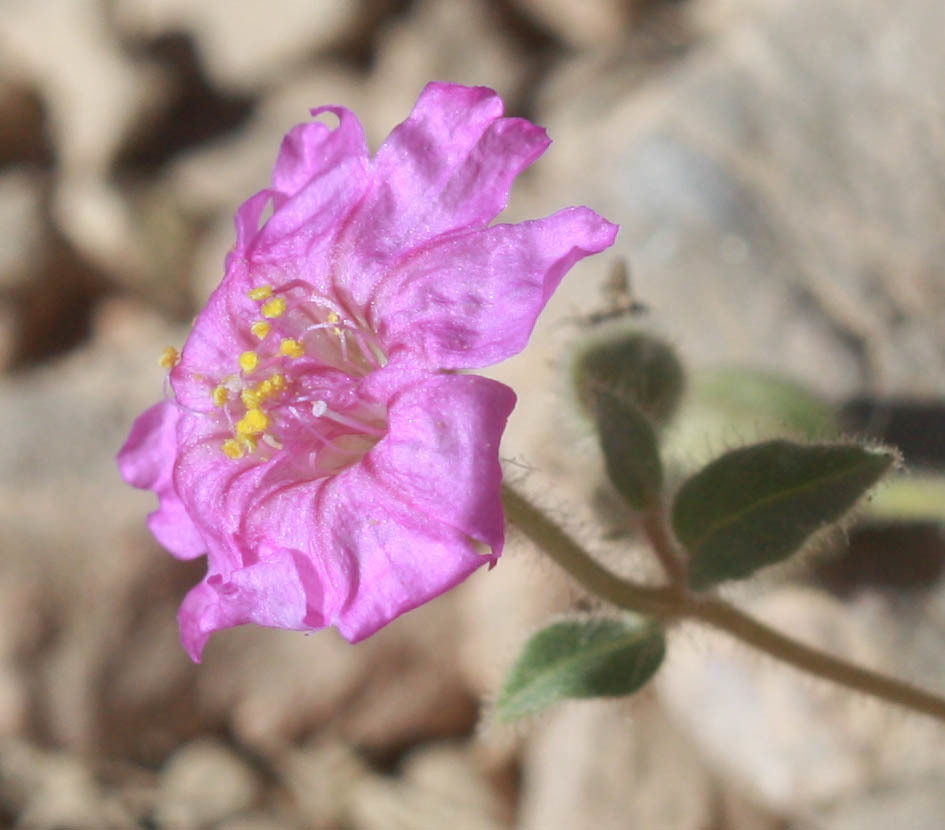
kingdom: Plantae
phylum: Tracheophyta
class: Magnoliopsida
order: Caryophyllales
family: Nyctaginaceae
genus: Allionia
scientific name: Allionia incarnata
